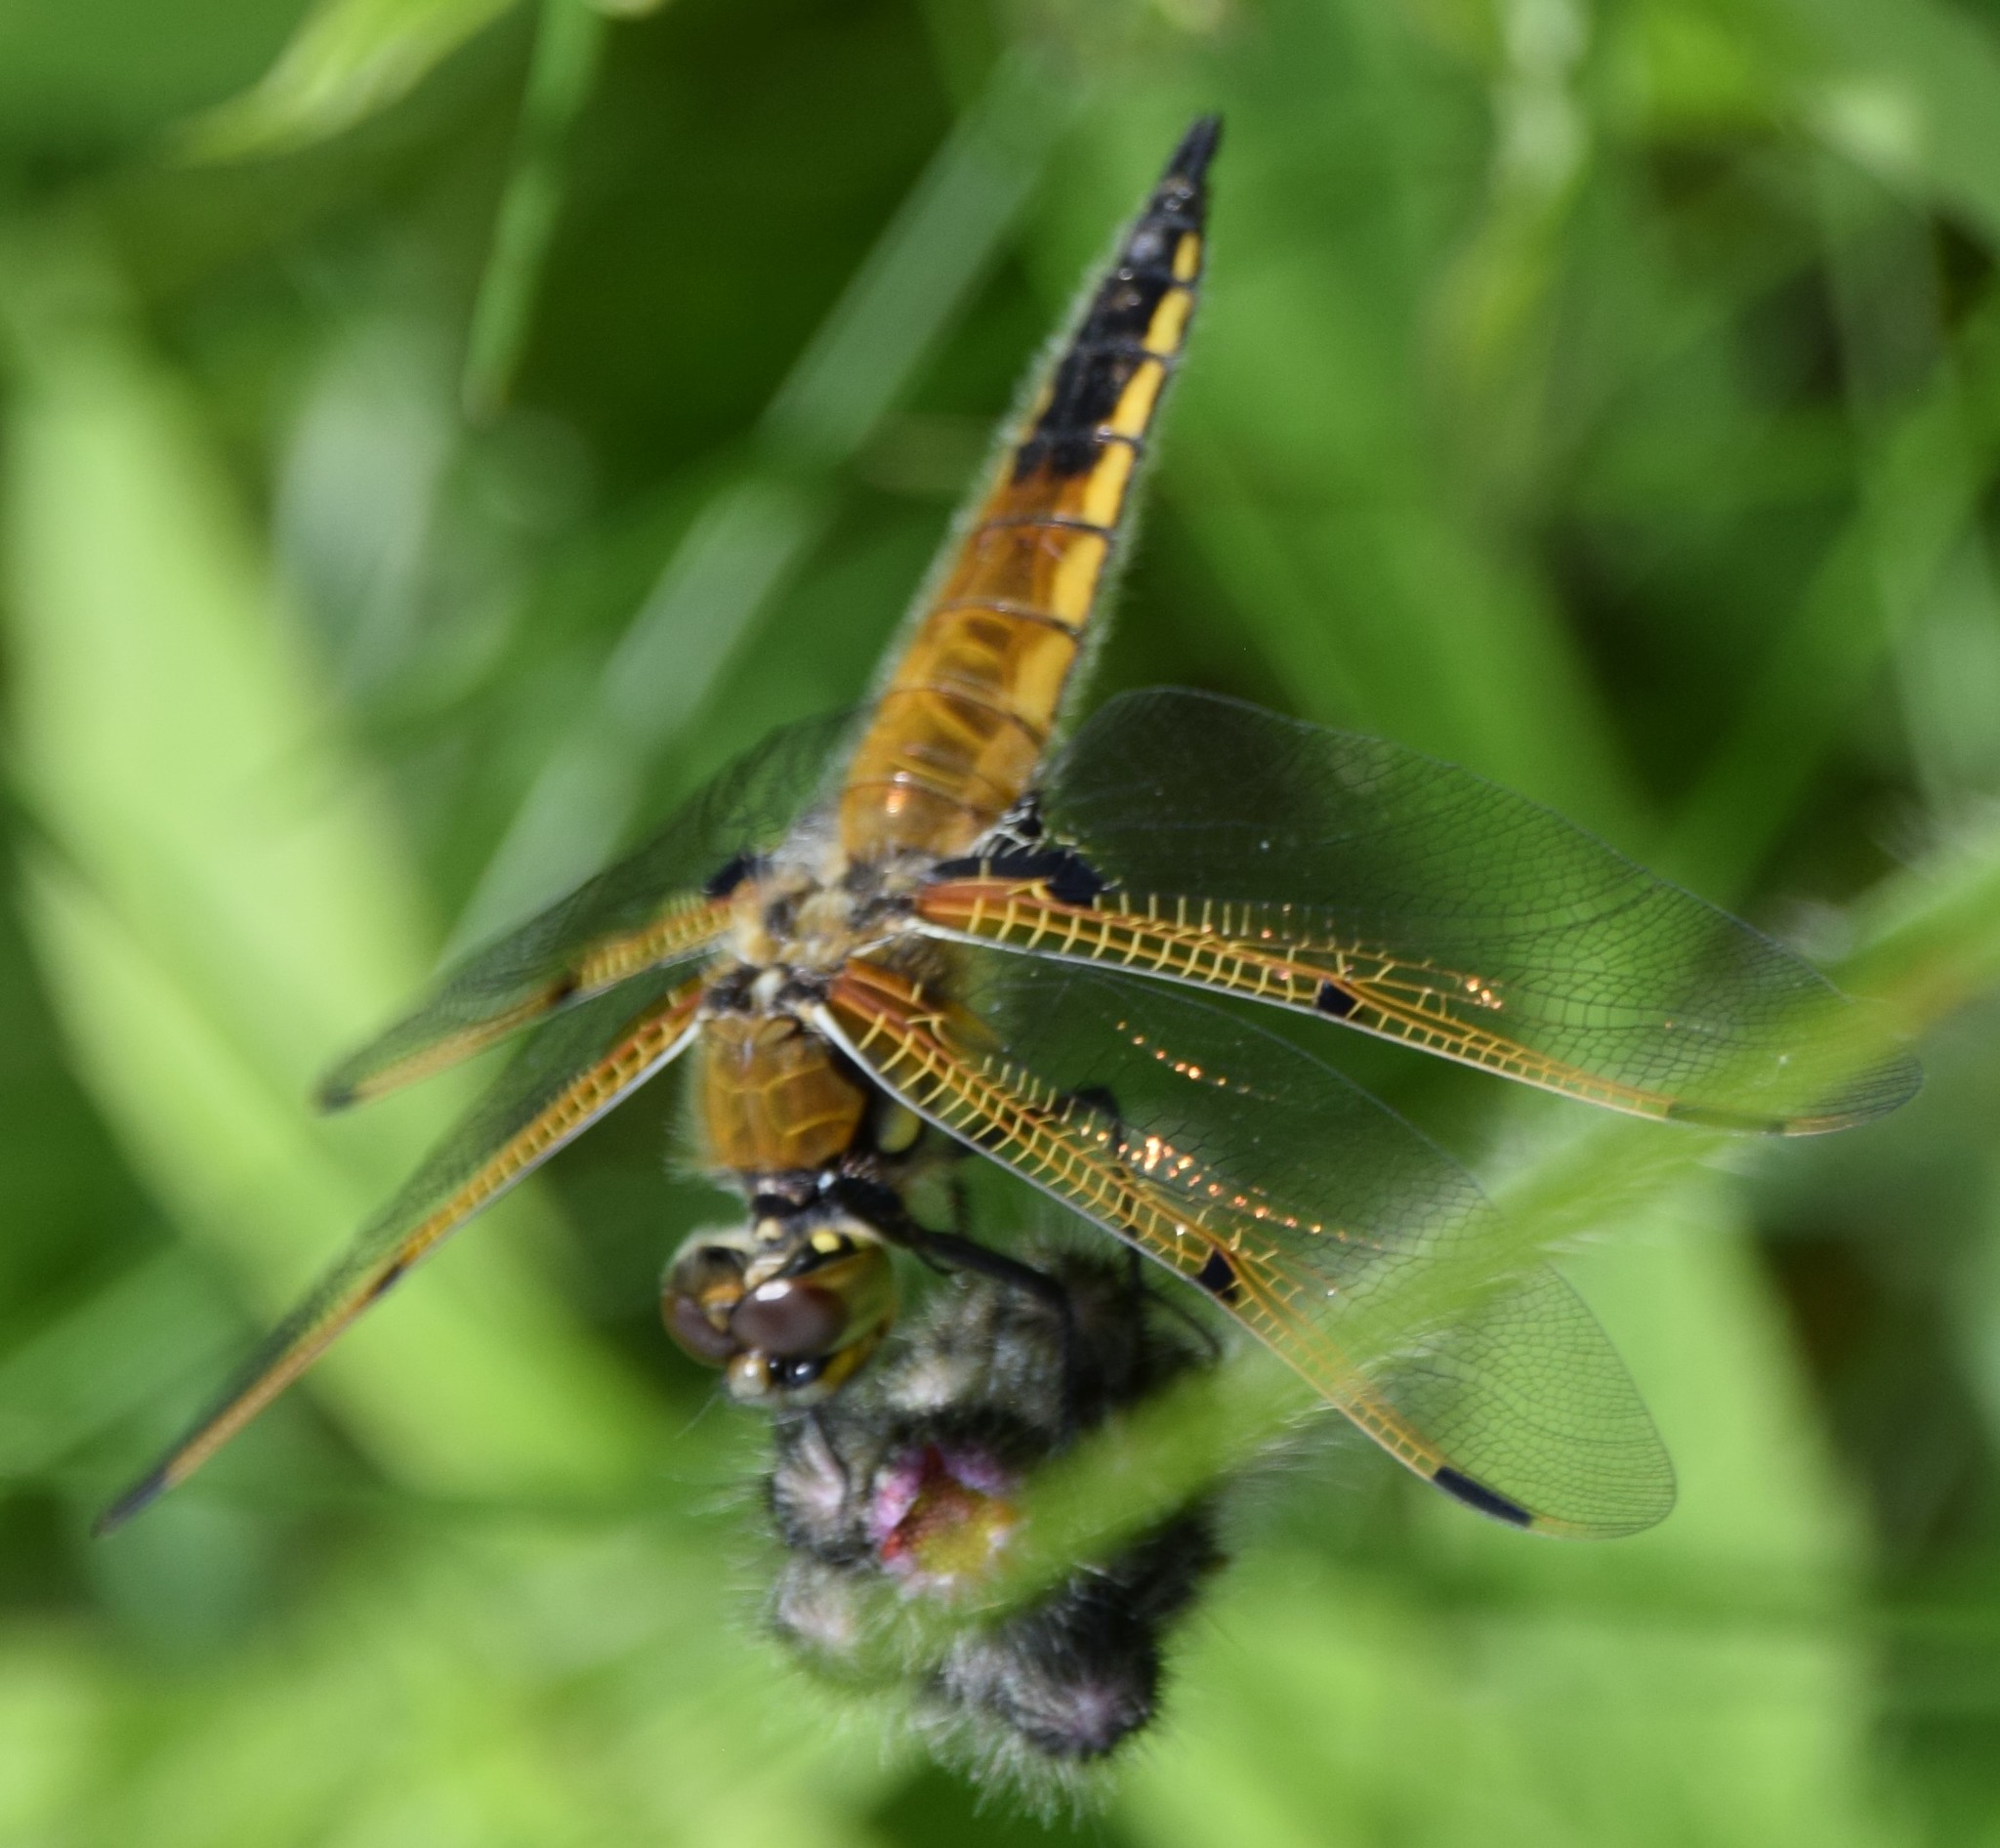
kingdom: Animalia
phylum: Arthropoda
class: Insecta
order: Odonata
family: Libellulidae
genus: Libellula
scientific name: Libellula quadrimaculata
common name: Four-spotted chaser
